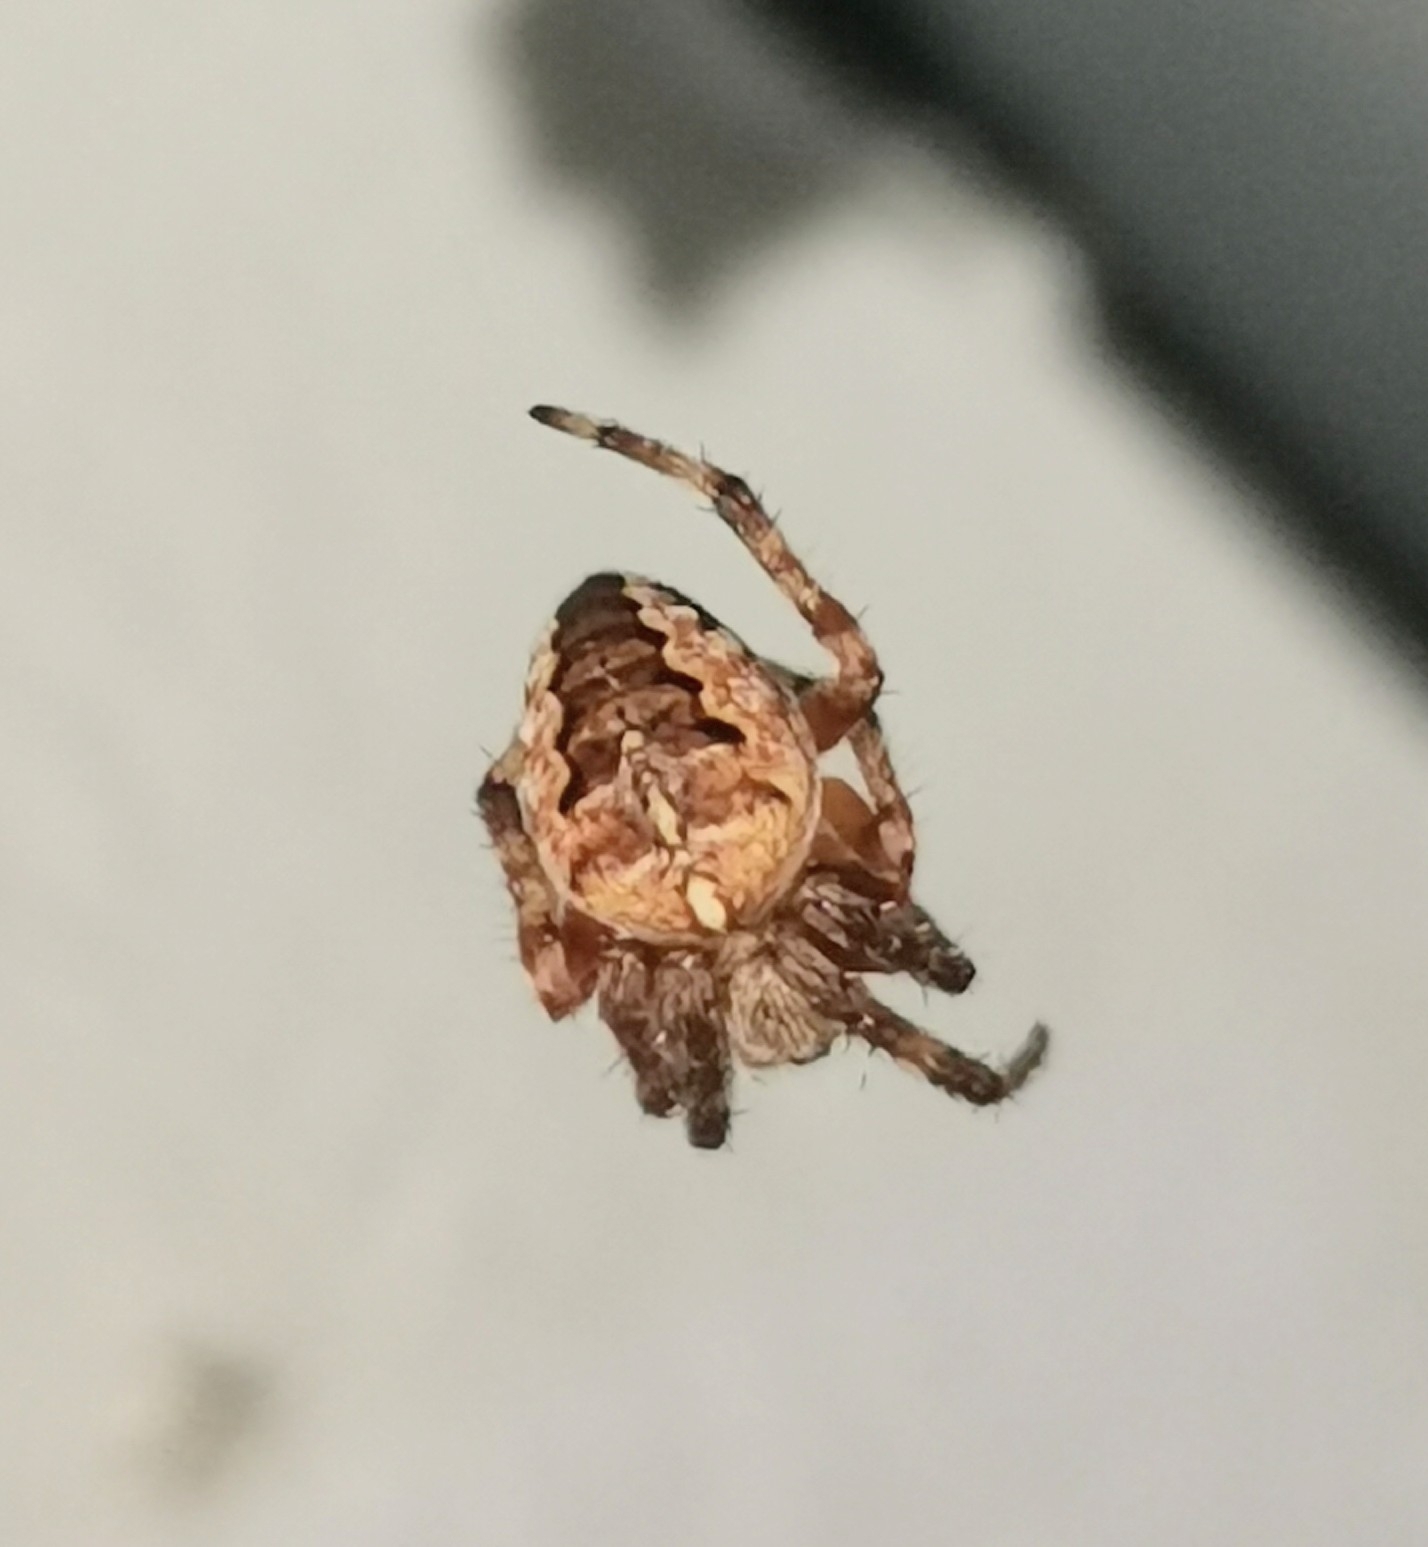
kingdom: Animalia
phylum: Arthropoda
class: Arachnida
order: Araneae
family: Araneidae
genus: Araneus
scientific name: Araneus diadematus
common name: Cross orbweaver
